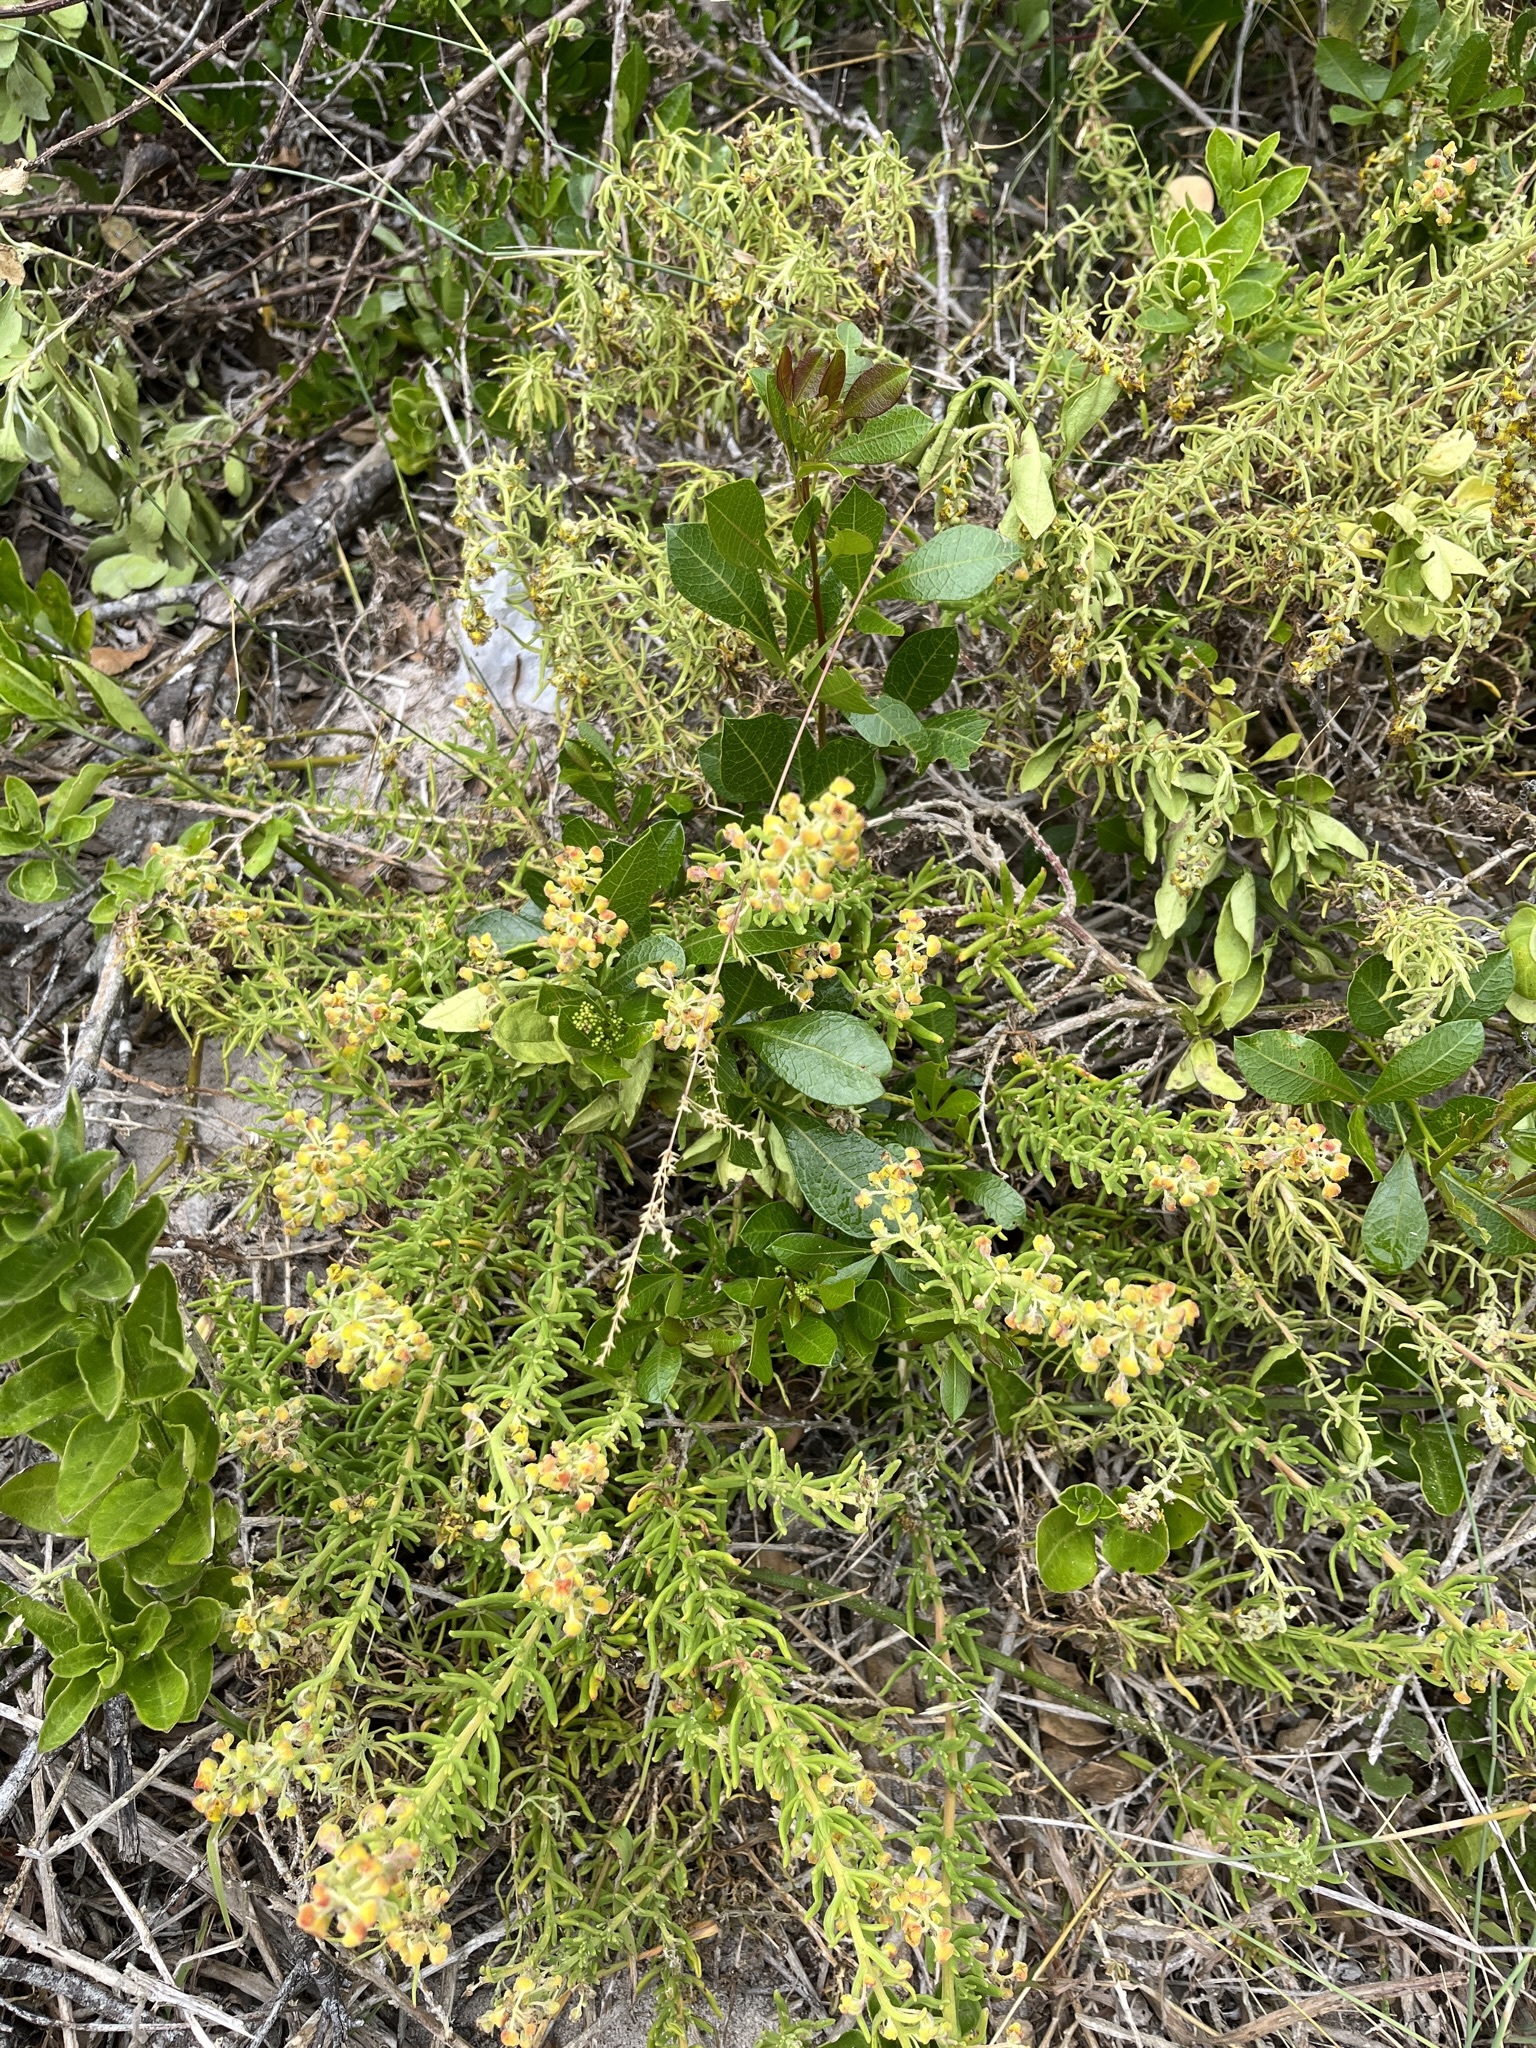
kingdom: Plantae
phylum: Tracheophyta
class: Magnoliopsida
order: Caryophyllales
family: Aizoaceae
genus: Tetragonia
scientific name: Tetragonia fruticosa
